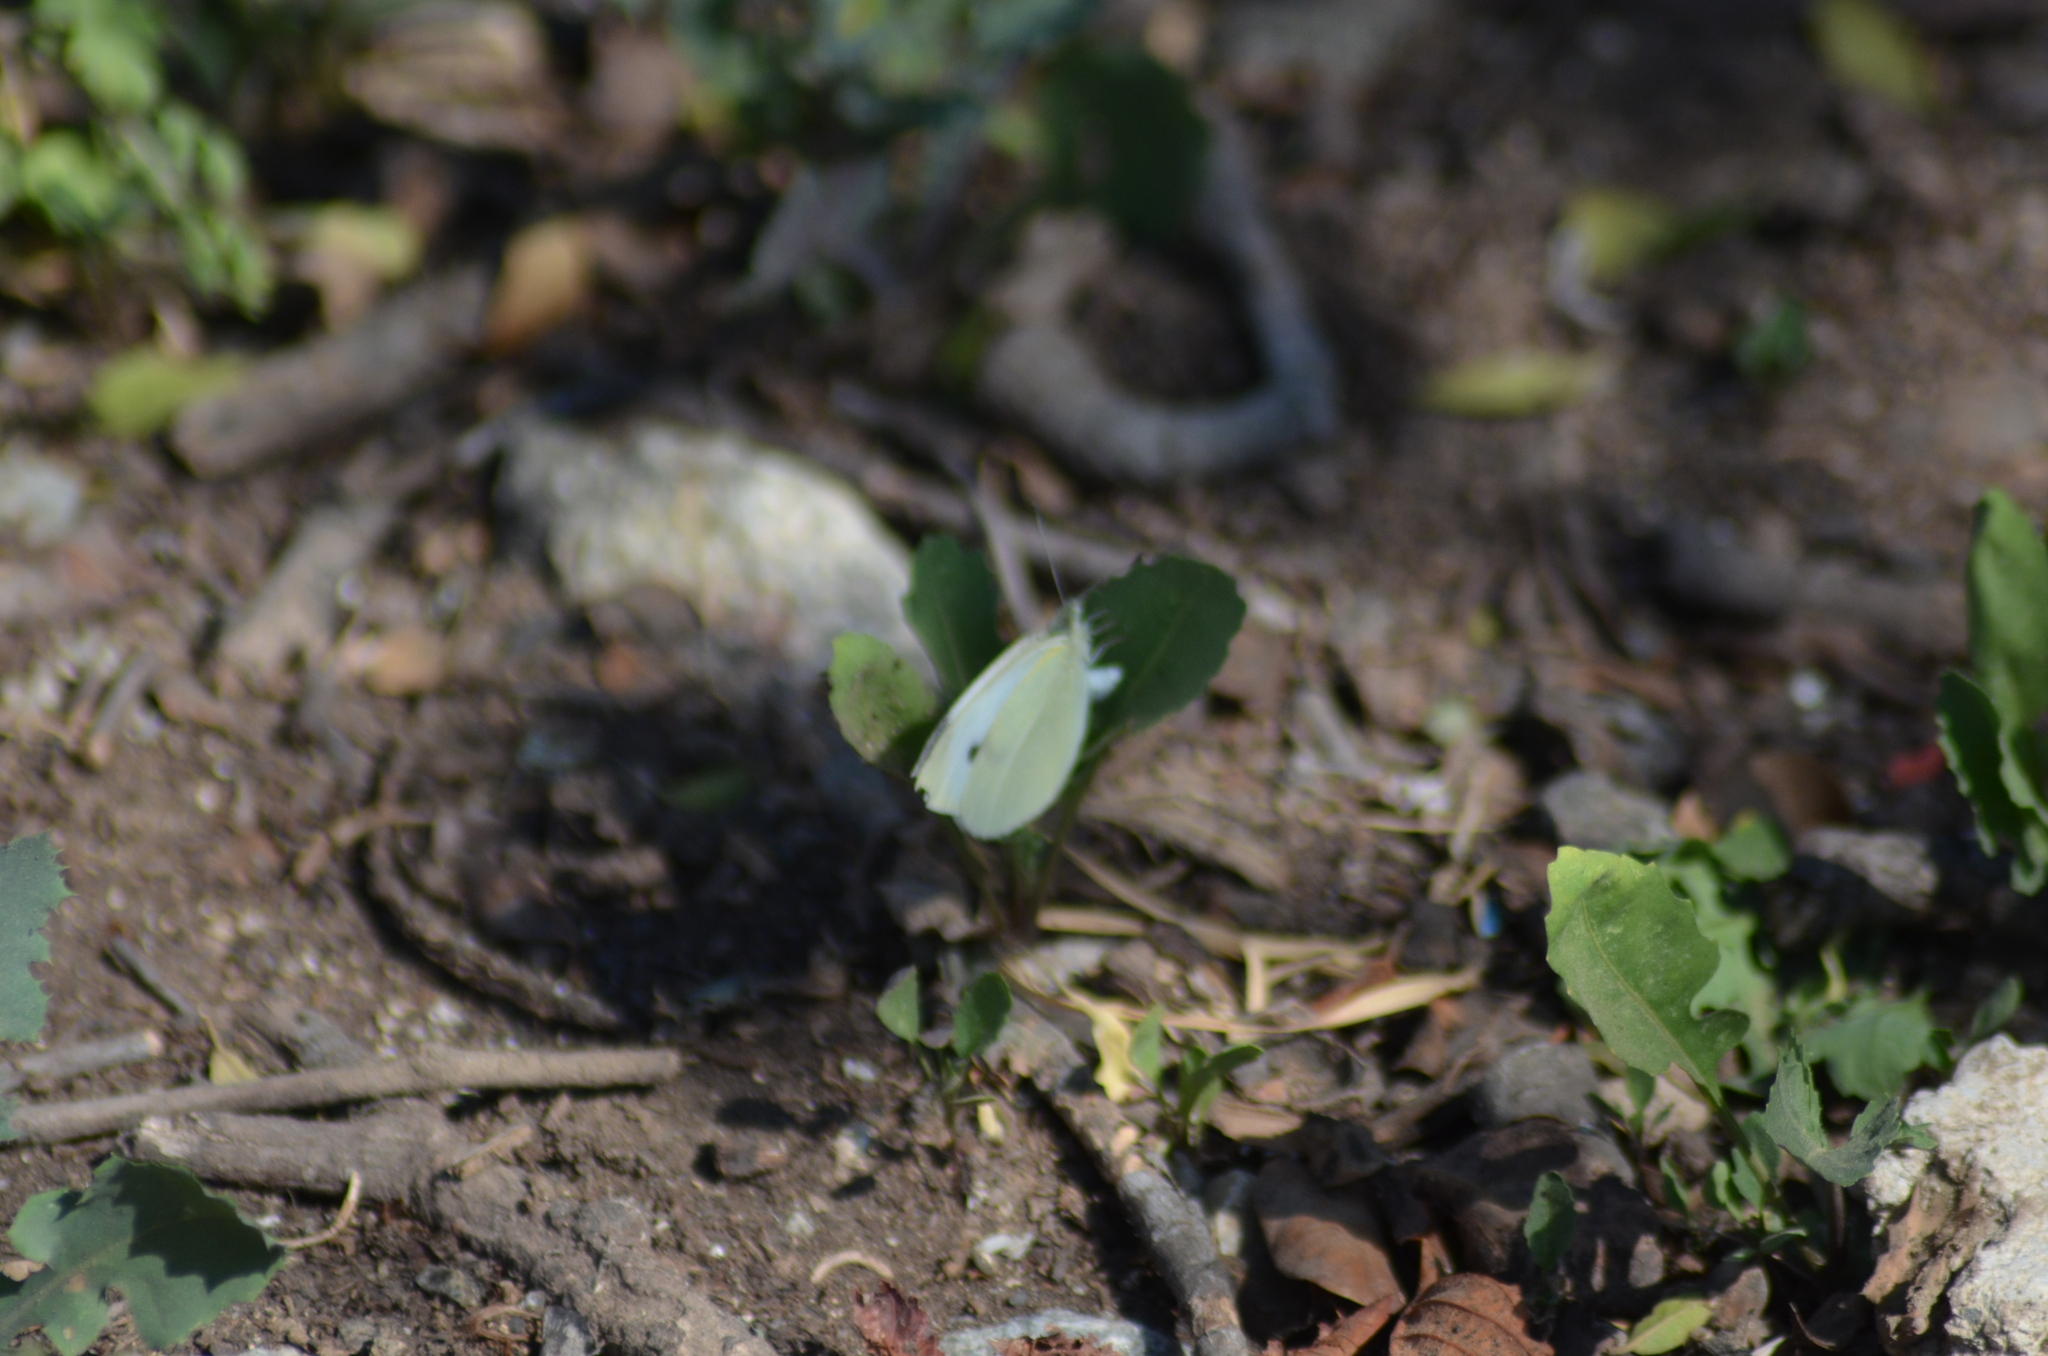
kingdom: Animalia
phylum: Arthropoda
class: Insecta
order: Lepidoptera
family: Pieridae
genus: Pieris
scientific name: Pieris rapae
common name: Small white
